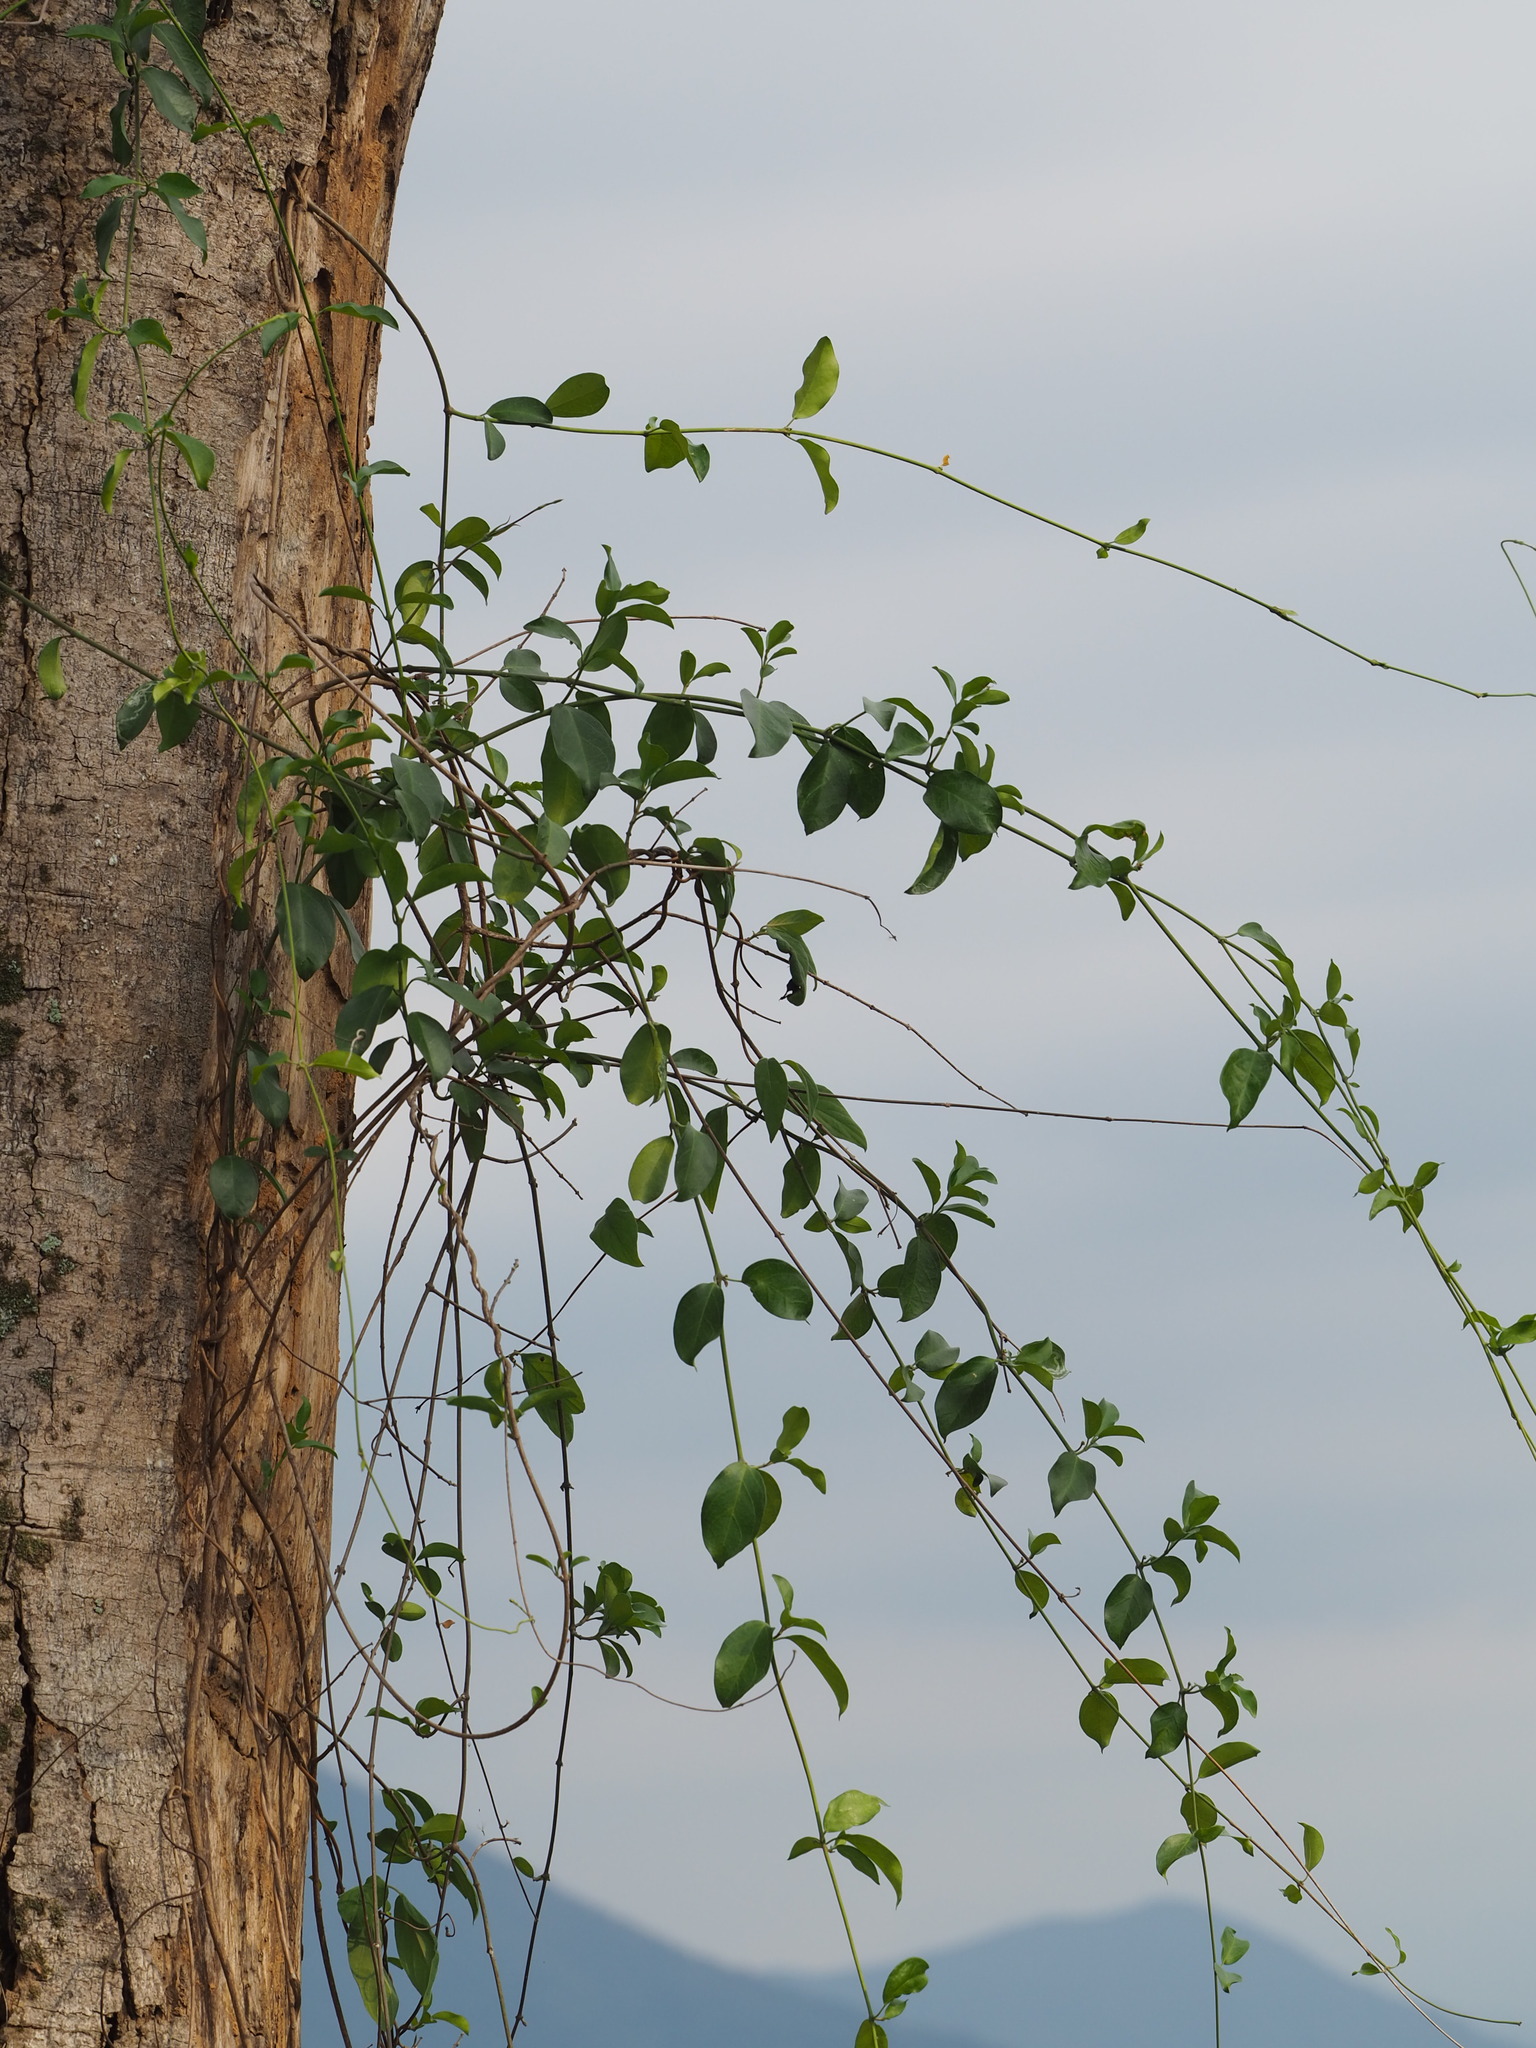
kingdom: Plantae
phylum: Tracheophyta
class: Magnoliopsida
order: Gentianales
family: Apocynaceae
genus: Urceola
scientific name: Urceola rosea
